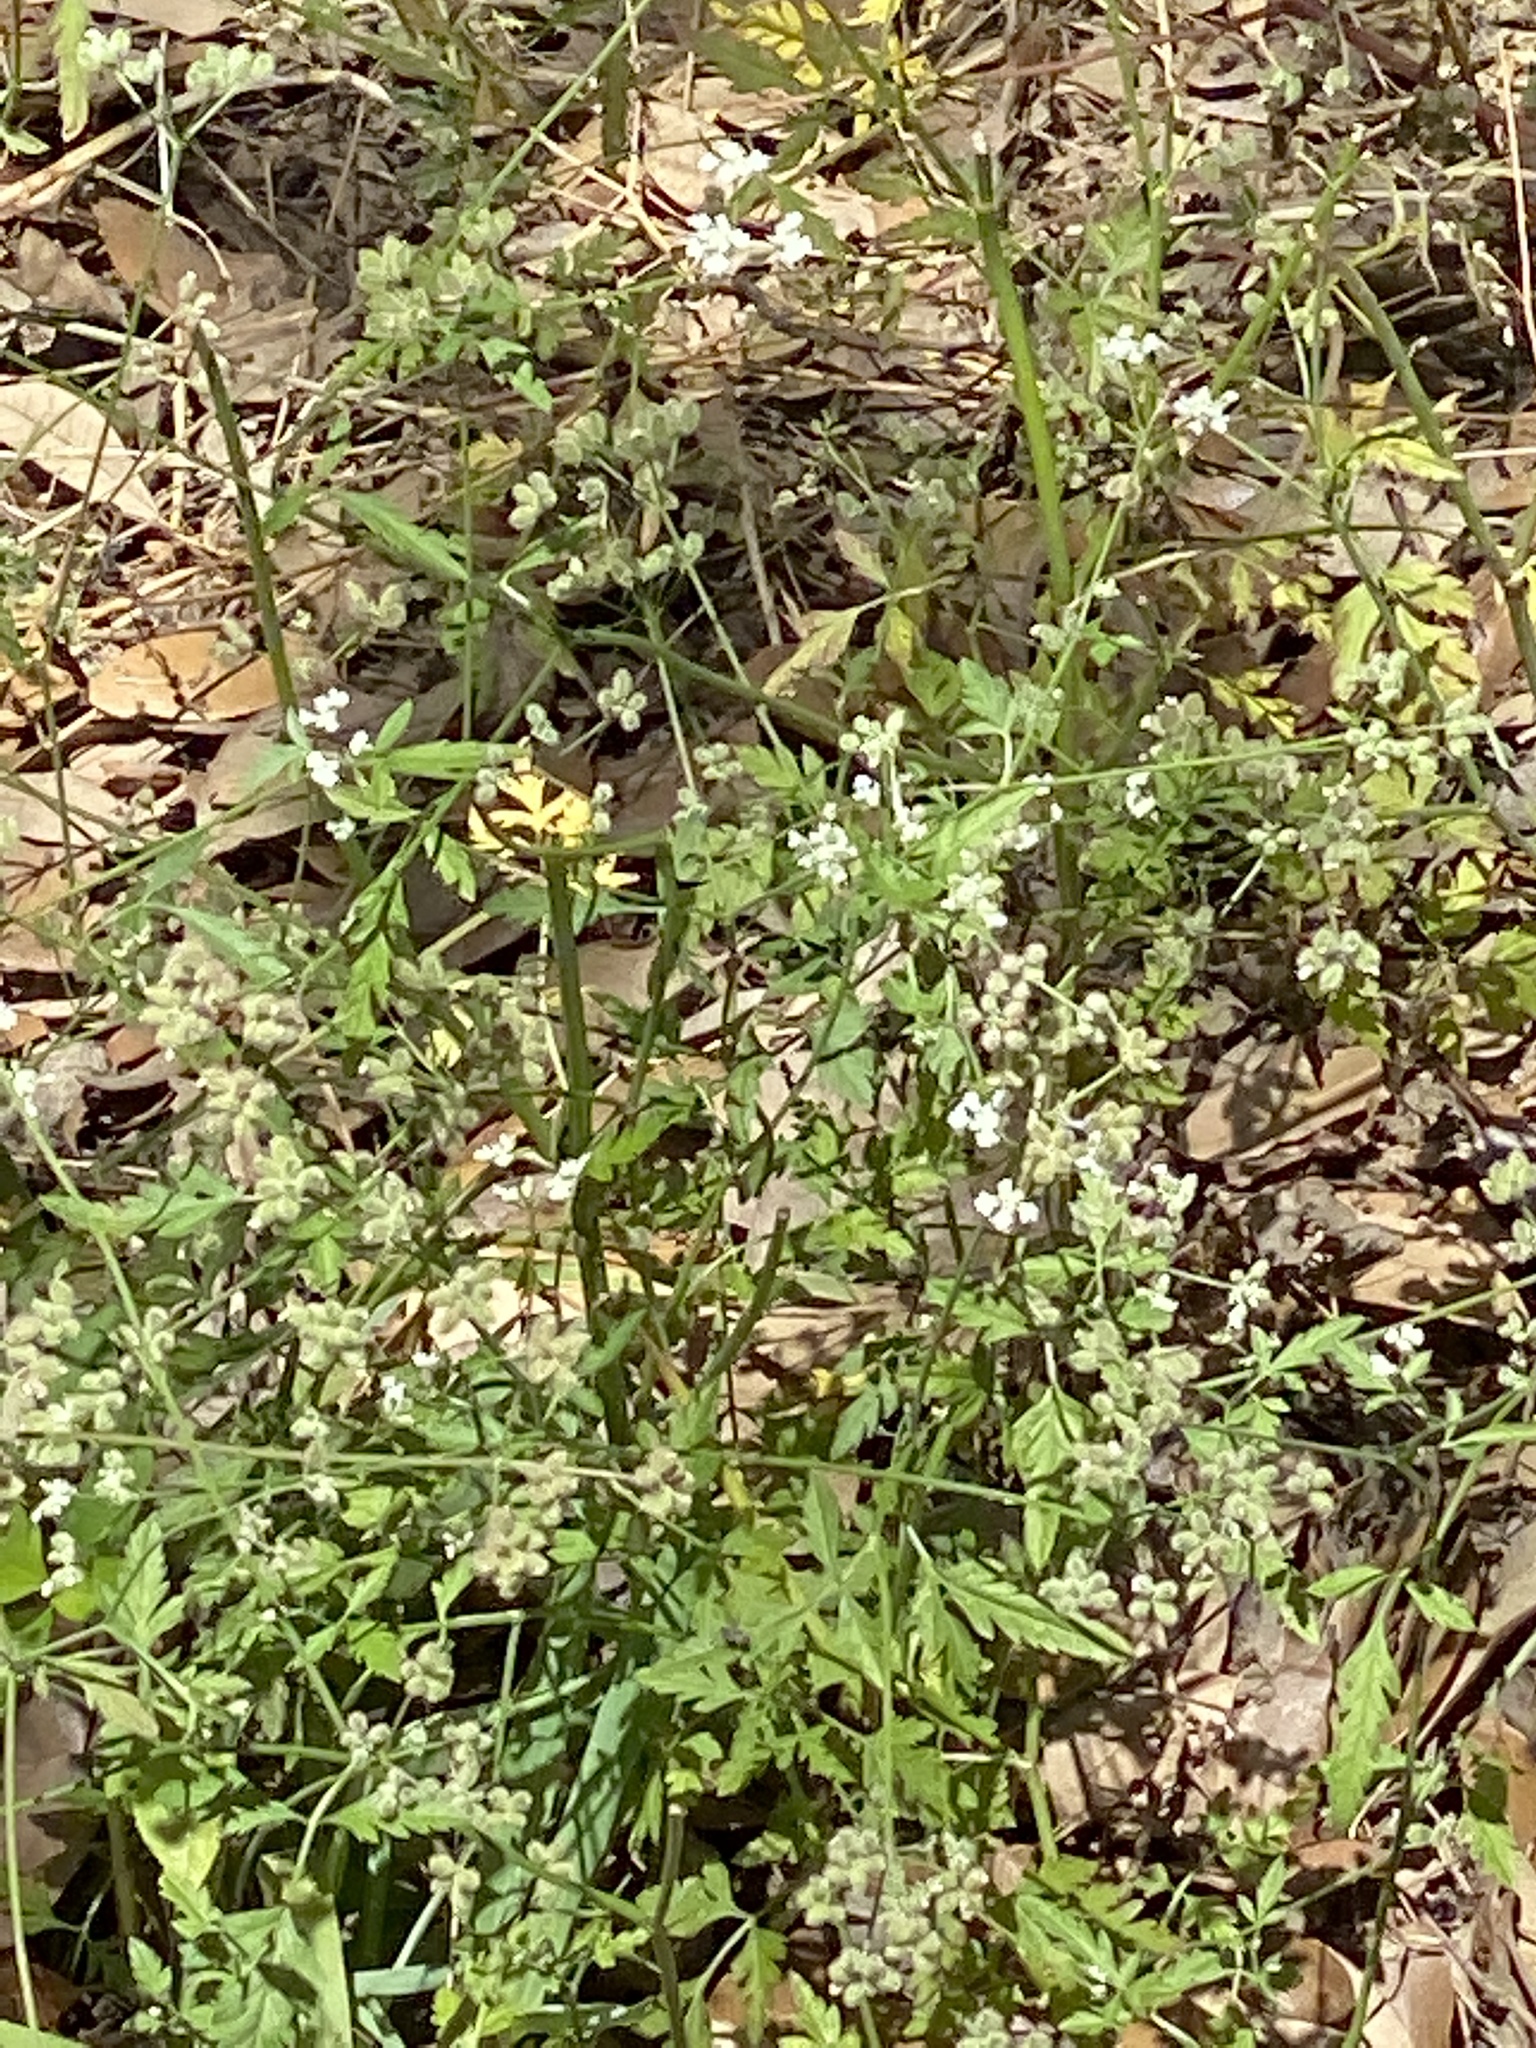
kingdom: Plantae
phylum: Tracheophyta
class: Magnoliopsida
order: Apiales
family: Apiaceae
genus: Torilis
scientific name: Torilis arvensis
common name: Spreading hedge-parsley
